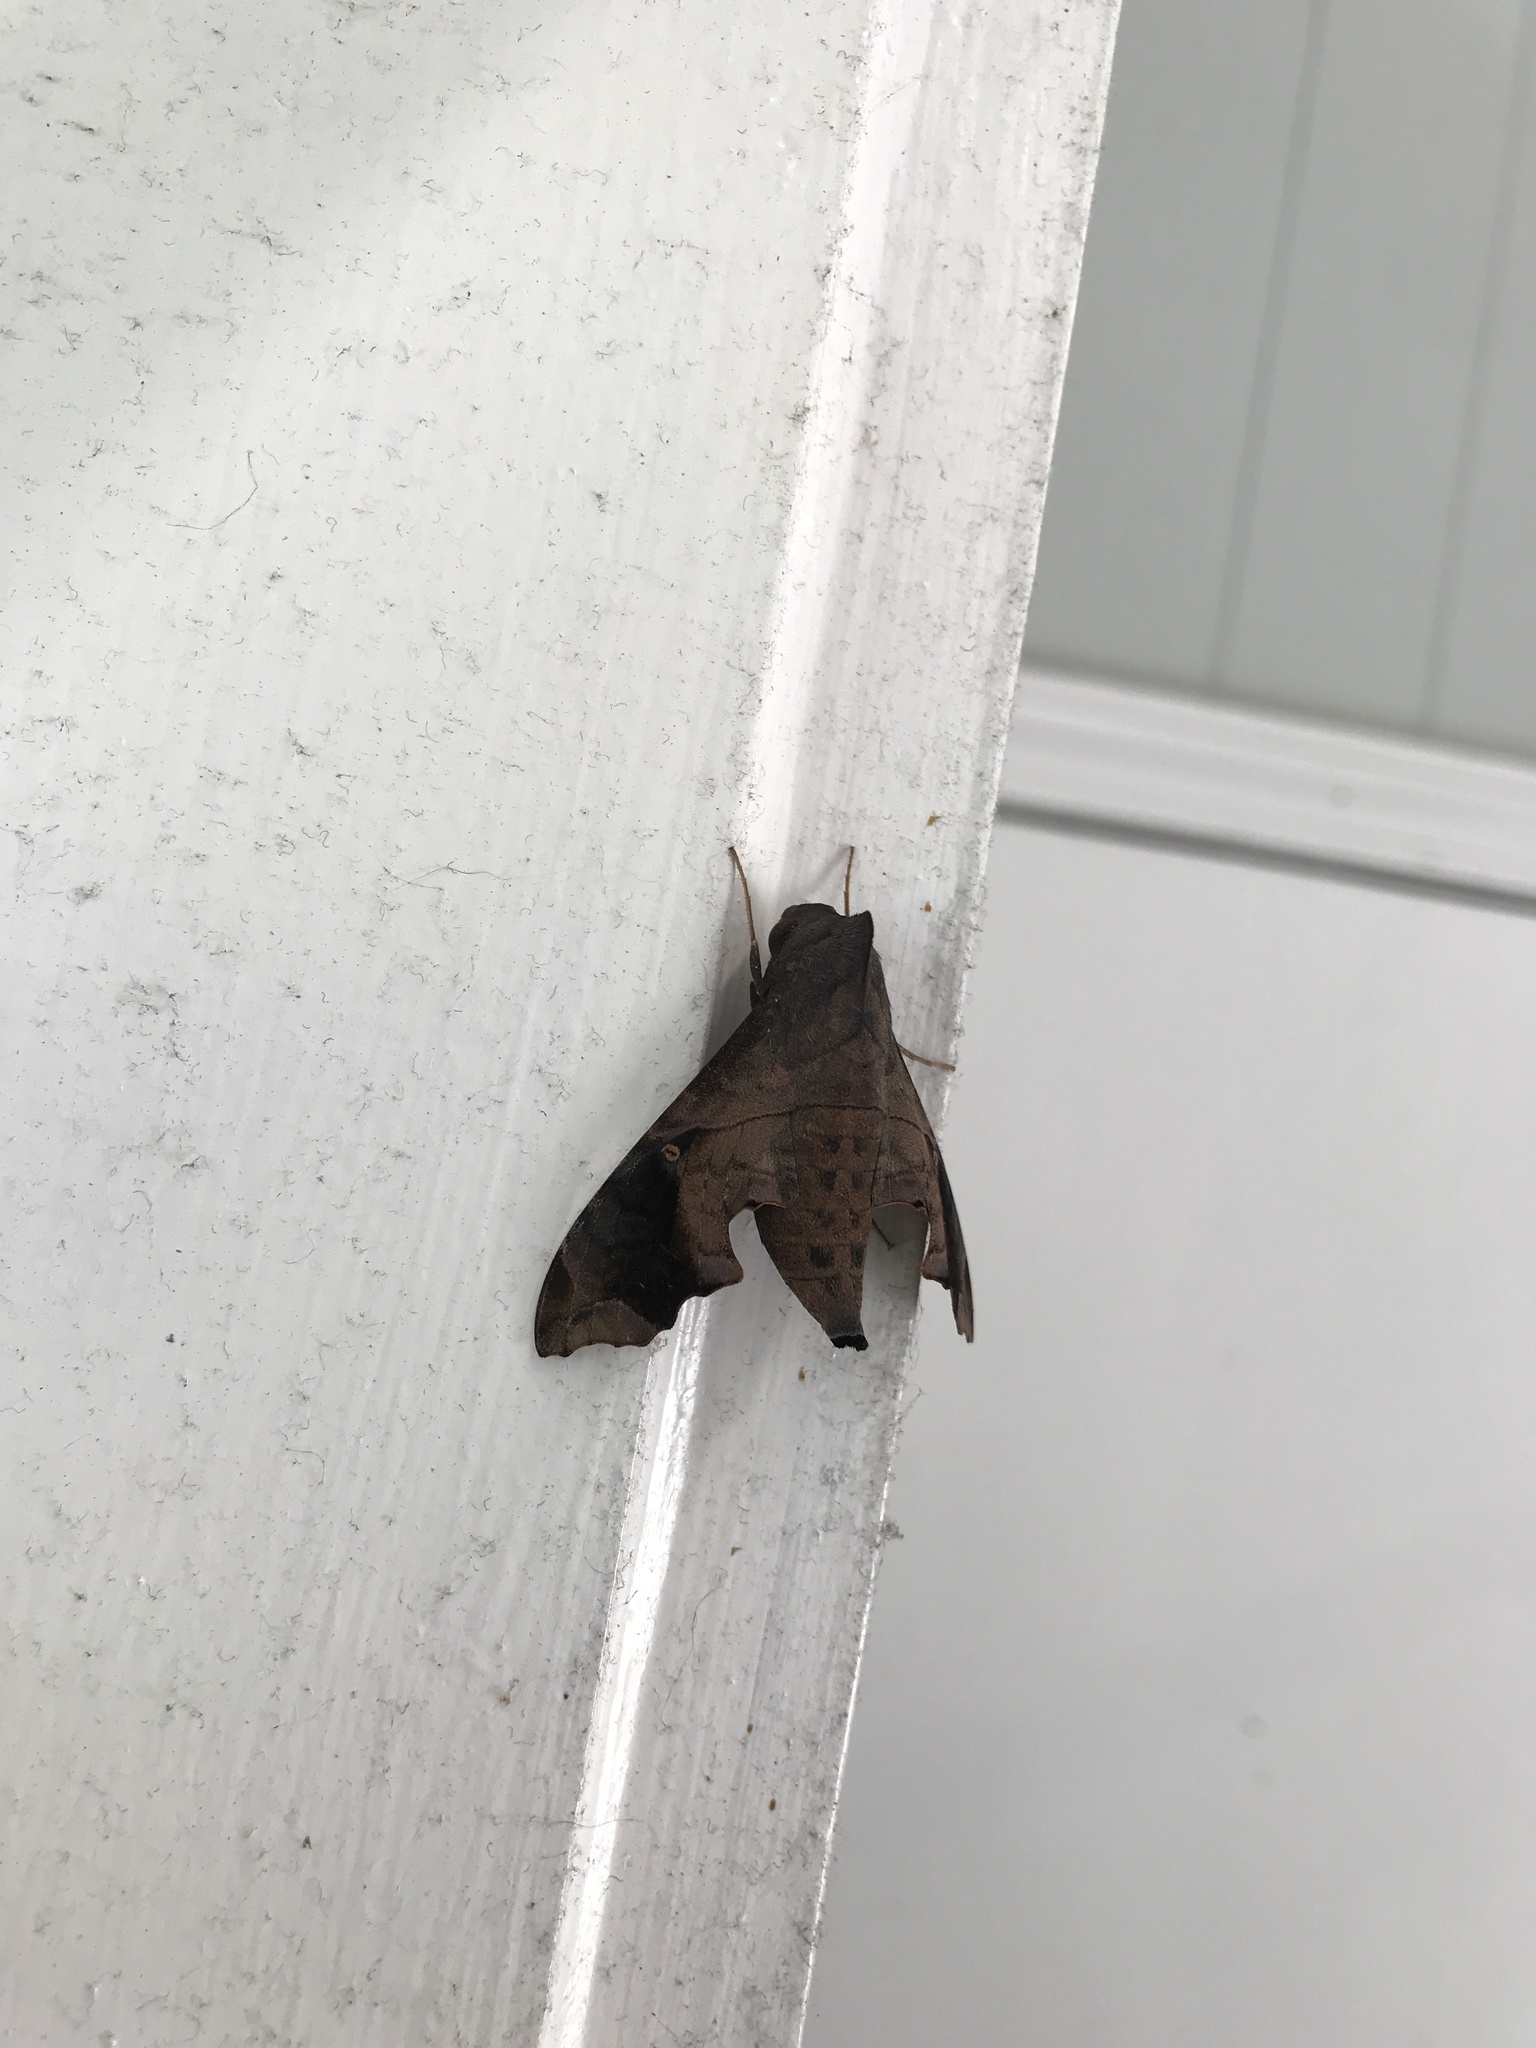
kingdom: Animalia
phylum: Arthropoda
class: Insecta
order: Lepidoptera
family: Sphingidae
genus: Enyo
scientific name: Enyo lugubris
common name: Mournful sphinx
